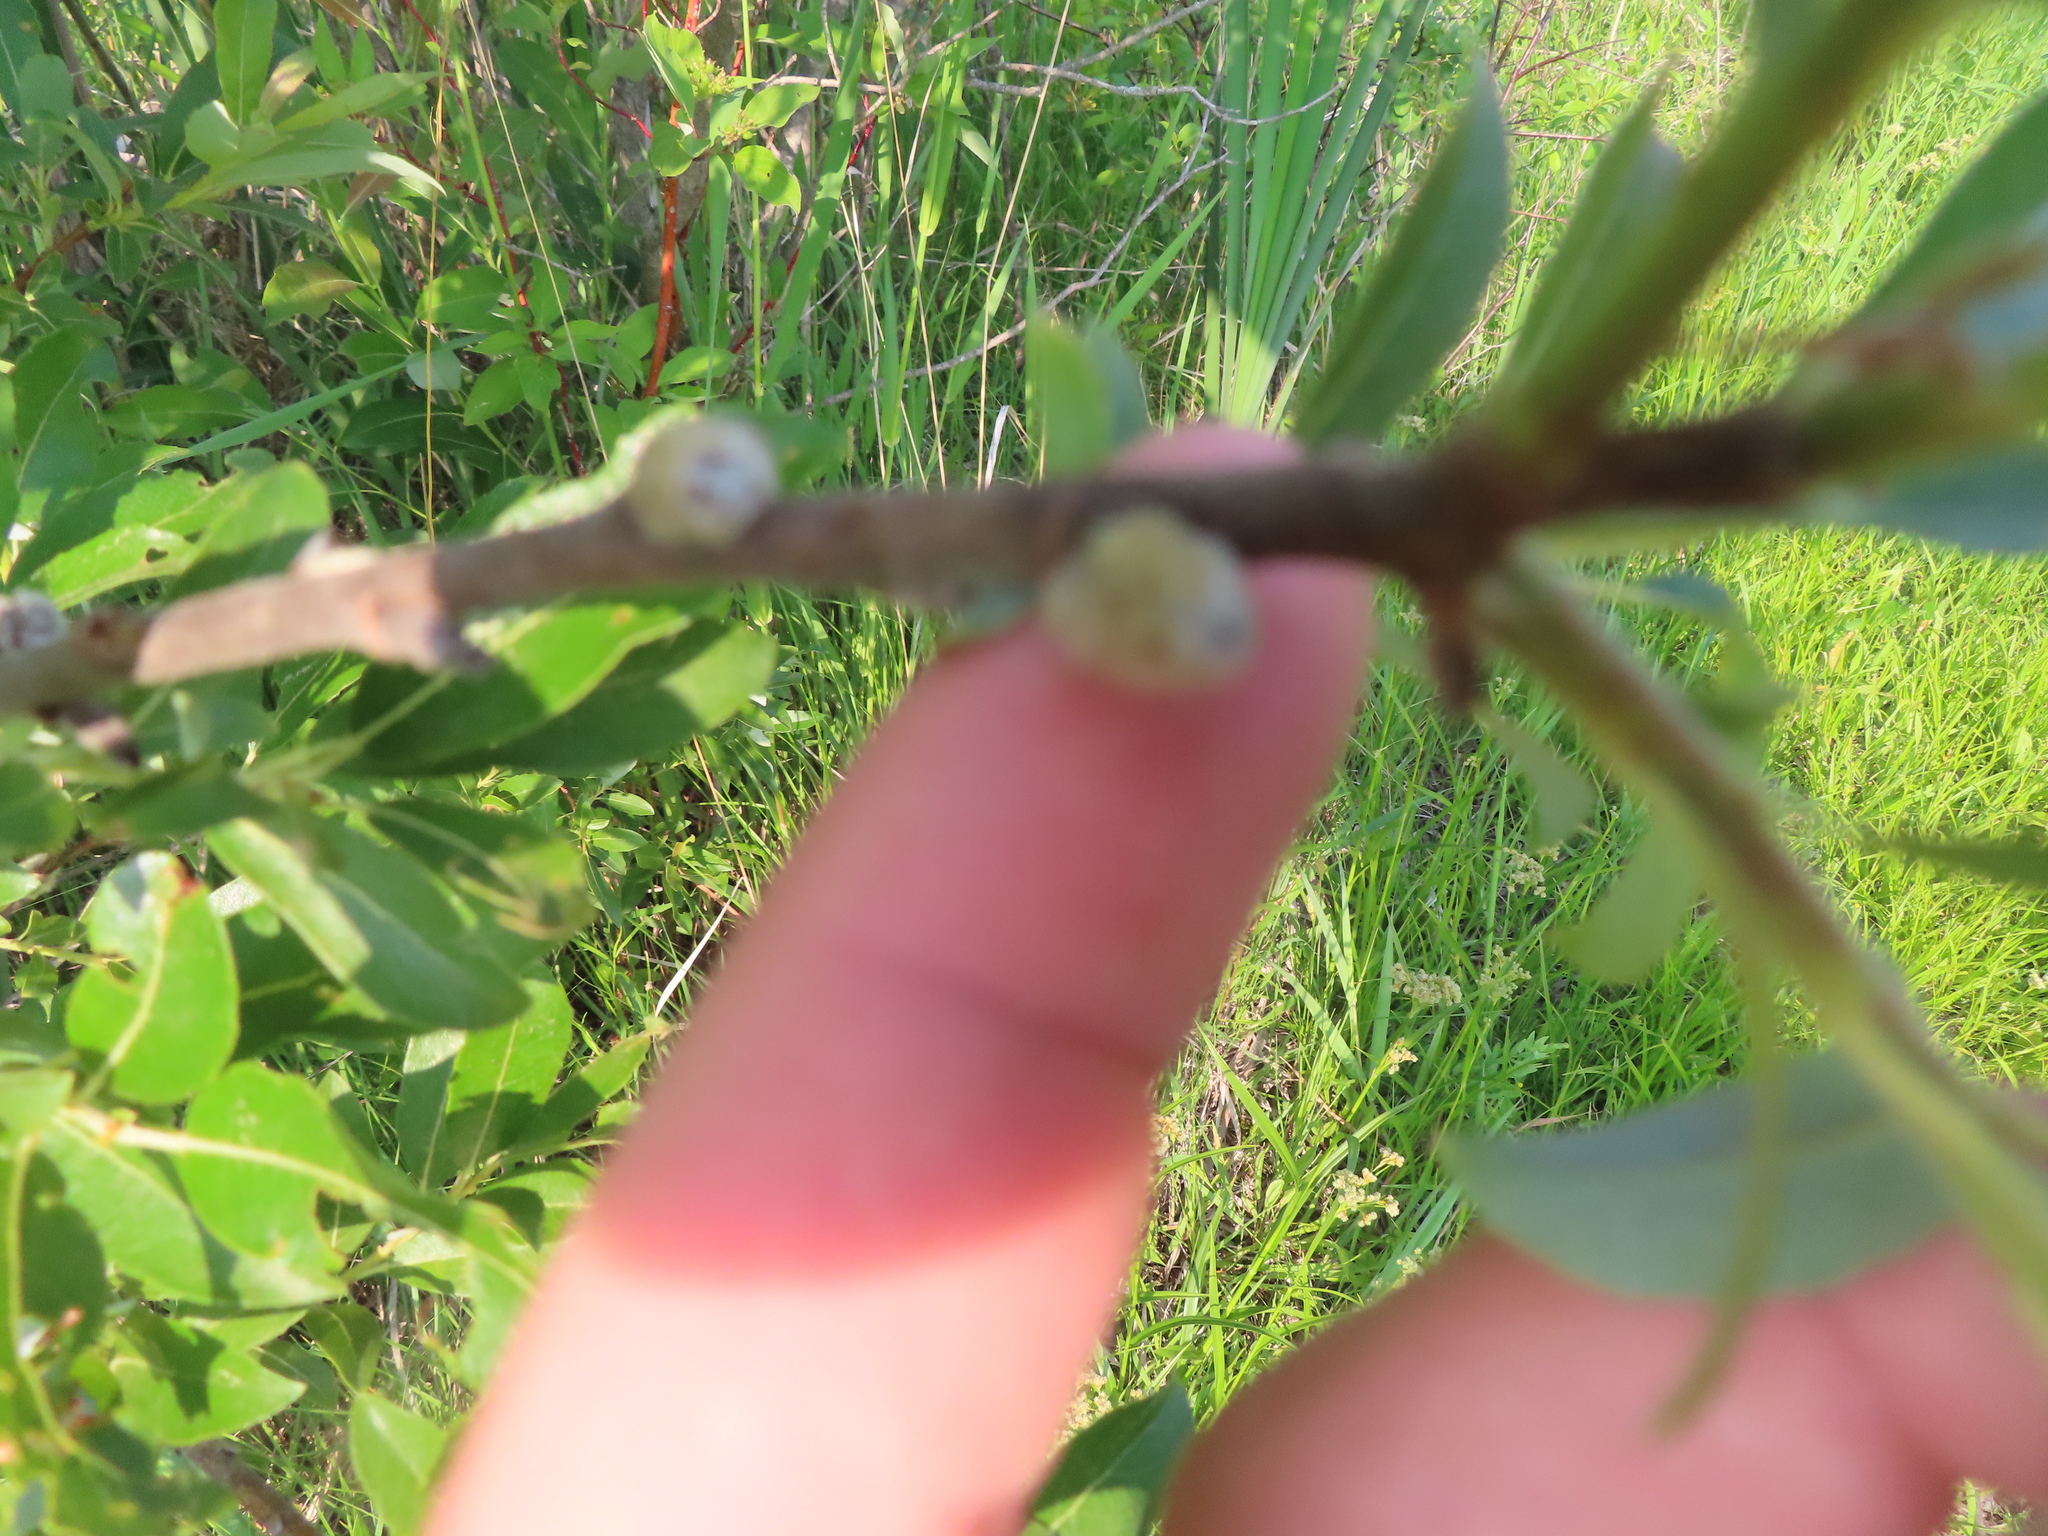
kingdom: Plantae
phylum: Tracheophyta
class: Magnoliopsida
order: Malpighiales
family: Salicaceae
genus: Salix
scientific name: Salix discolor
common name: Glaucous willow
